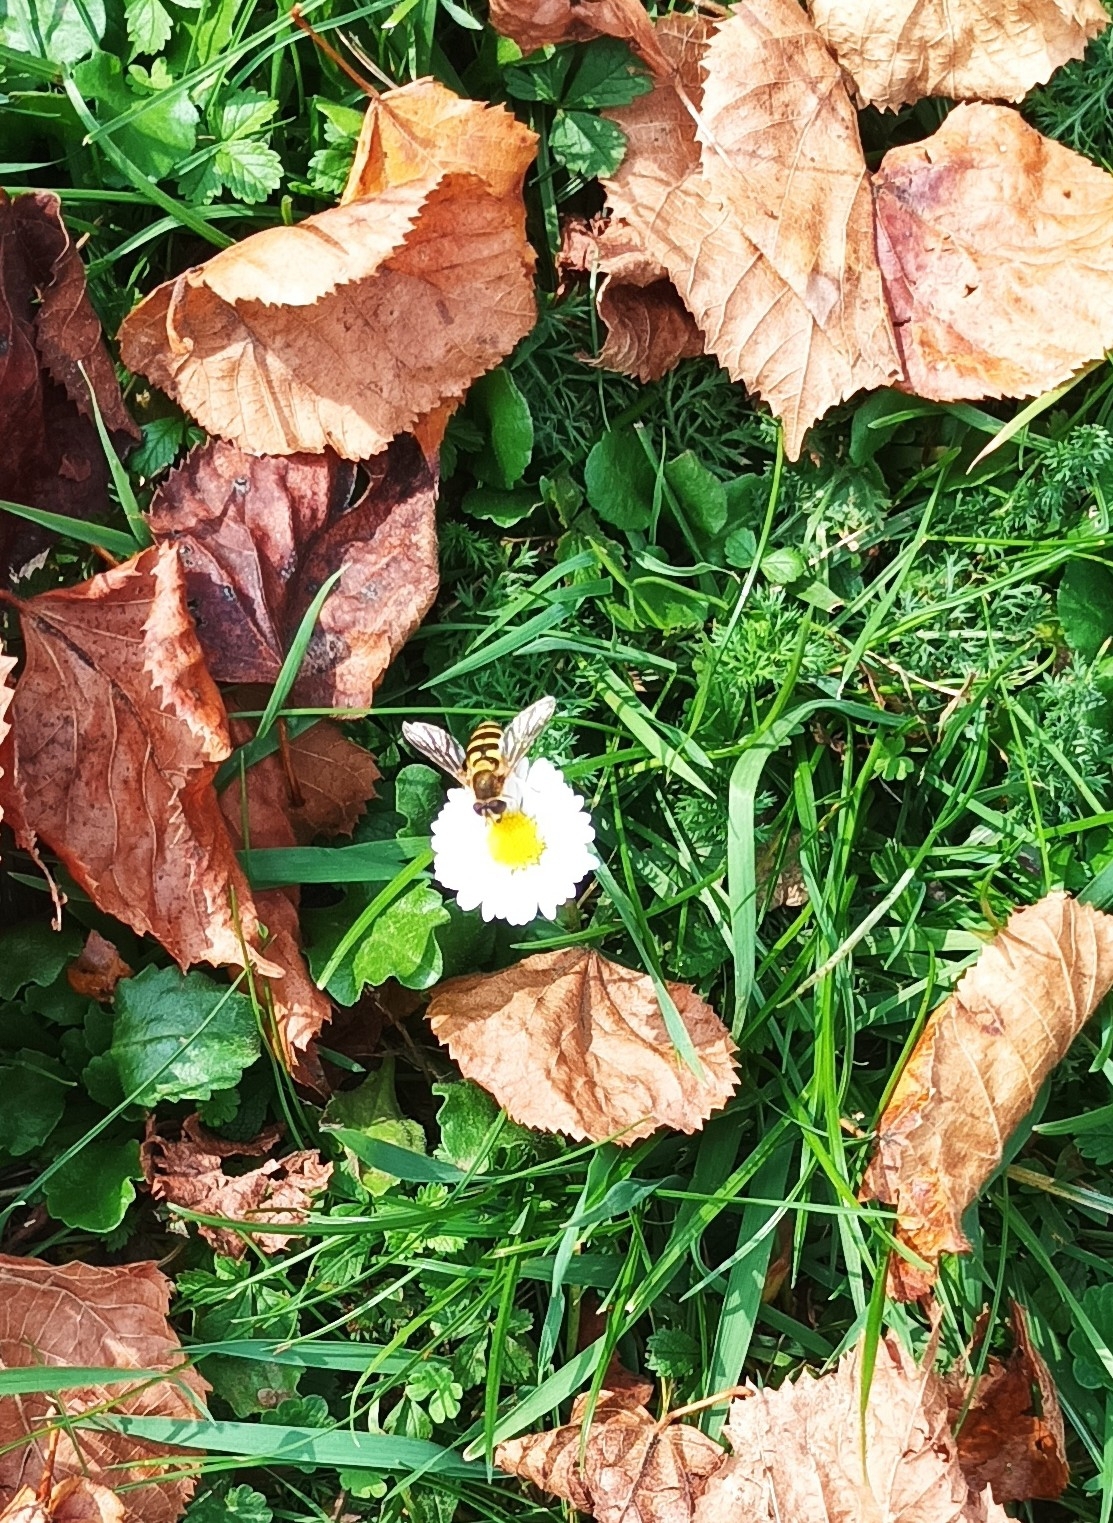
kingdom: Animalia
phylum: Arthropoda
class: Insecta
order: Diptera
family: Syrphidae
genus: Syrphus
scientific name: Syrphus
